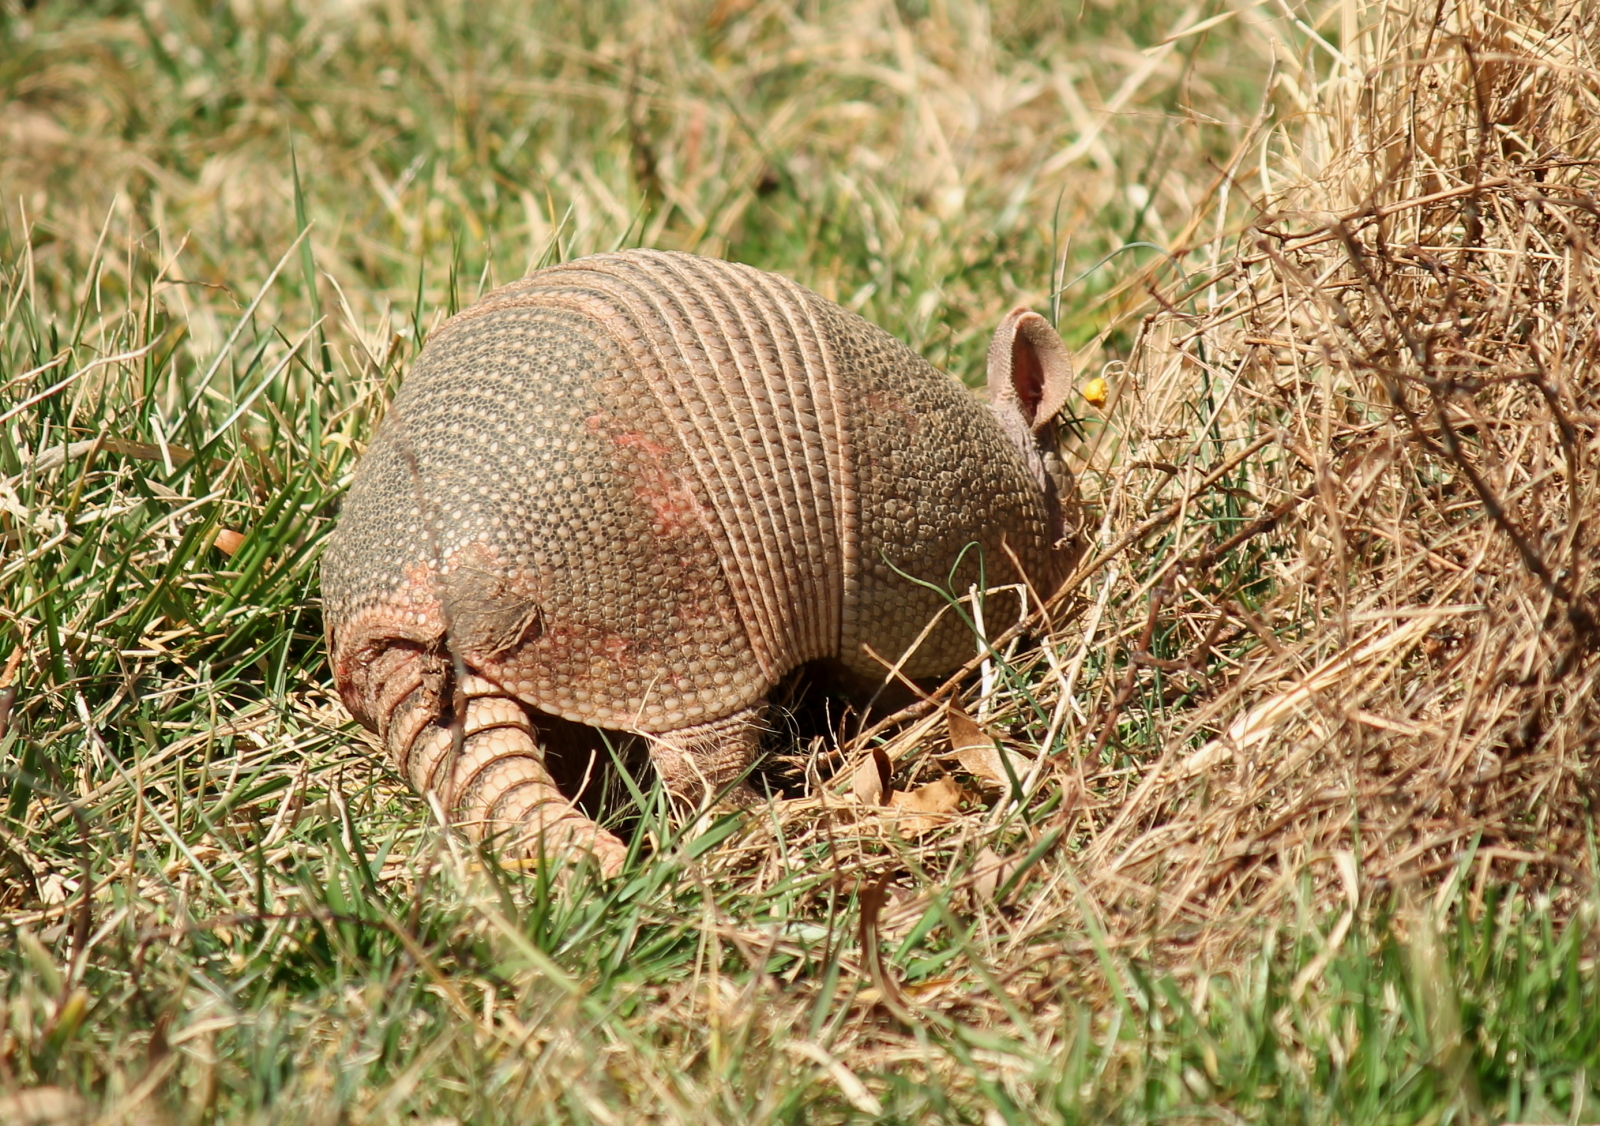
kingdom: Animalia
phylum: Chordata
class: Mammalia
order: Cingulata
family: Dasypodidae
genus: Dasypus
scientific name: Dasypus novemcinctus
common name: Nine-banded armadillo
